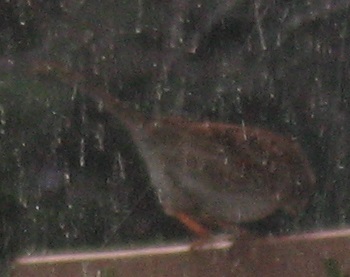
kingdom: Animalia
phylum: Chordata
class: Aves
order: Passeriformes
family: Passerellidae
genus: Zonotrichia
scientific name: Zonotrichia albicollis
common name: White-throated sparrow
